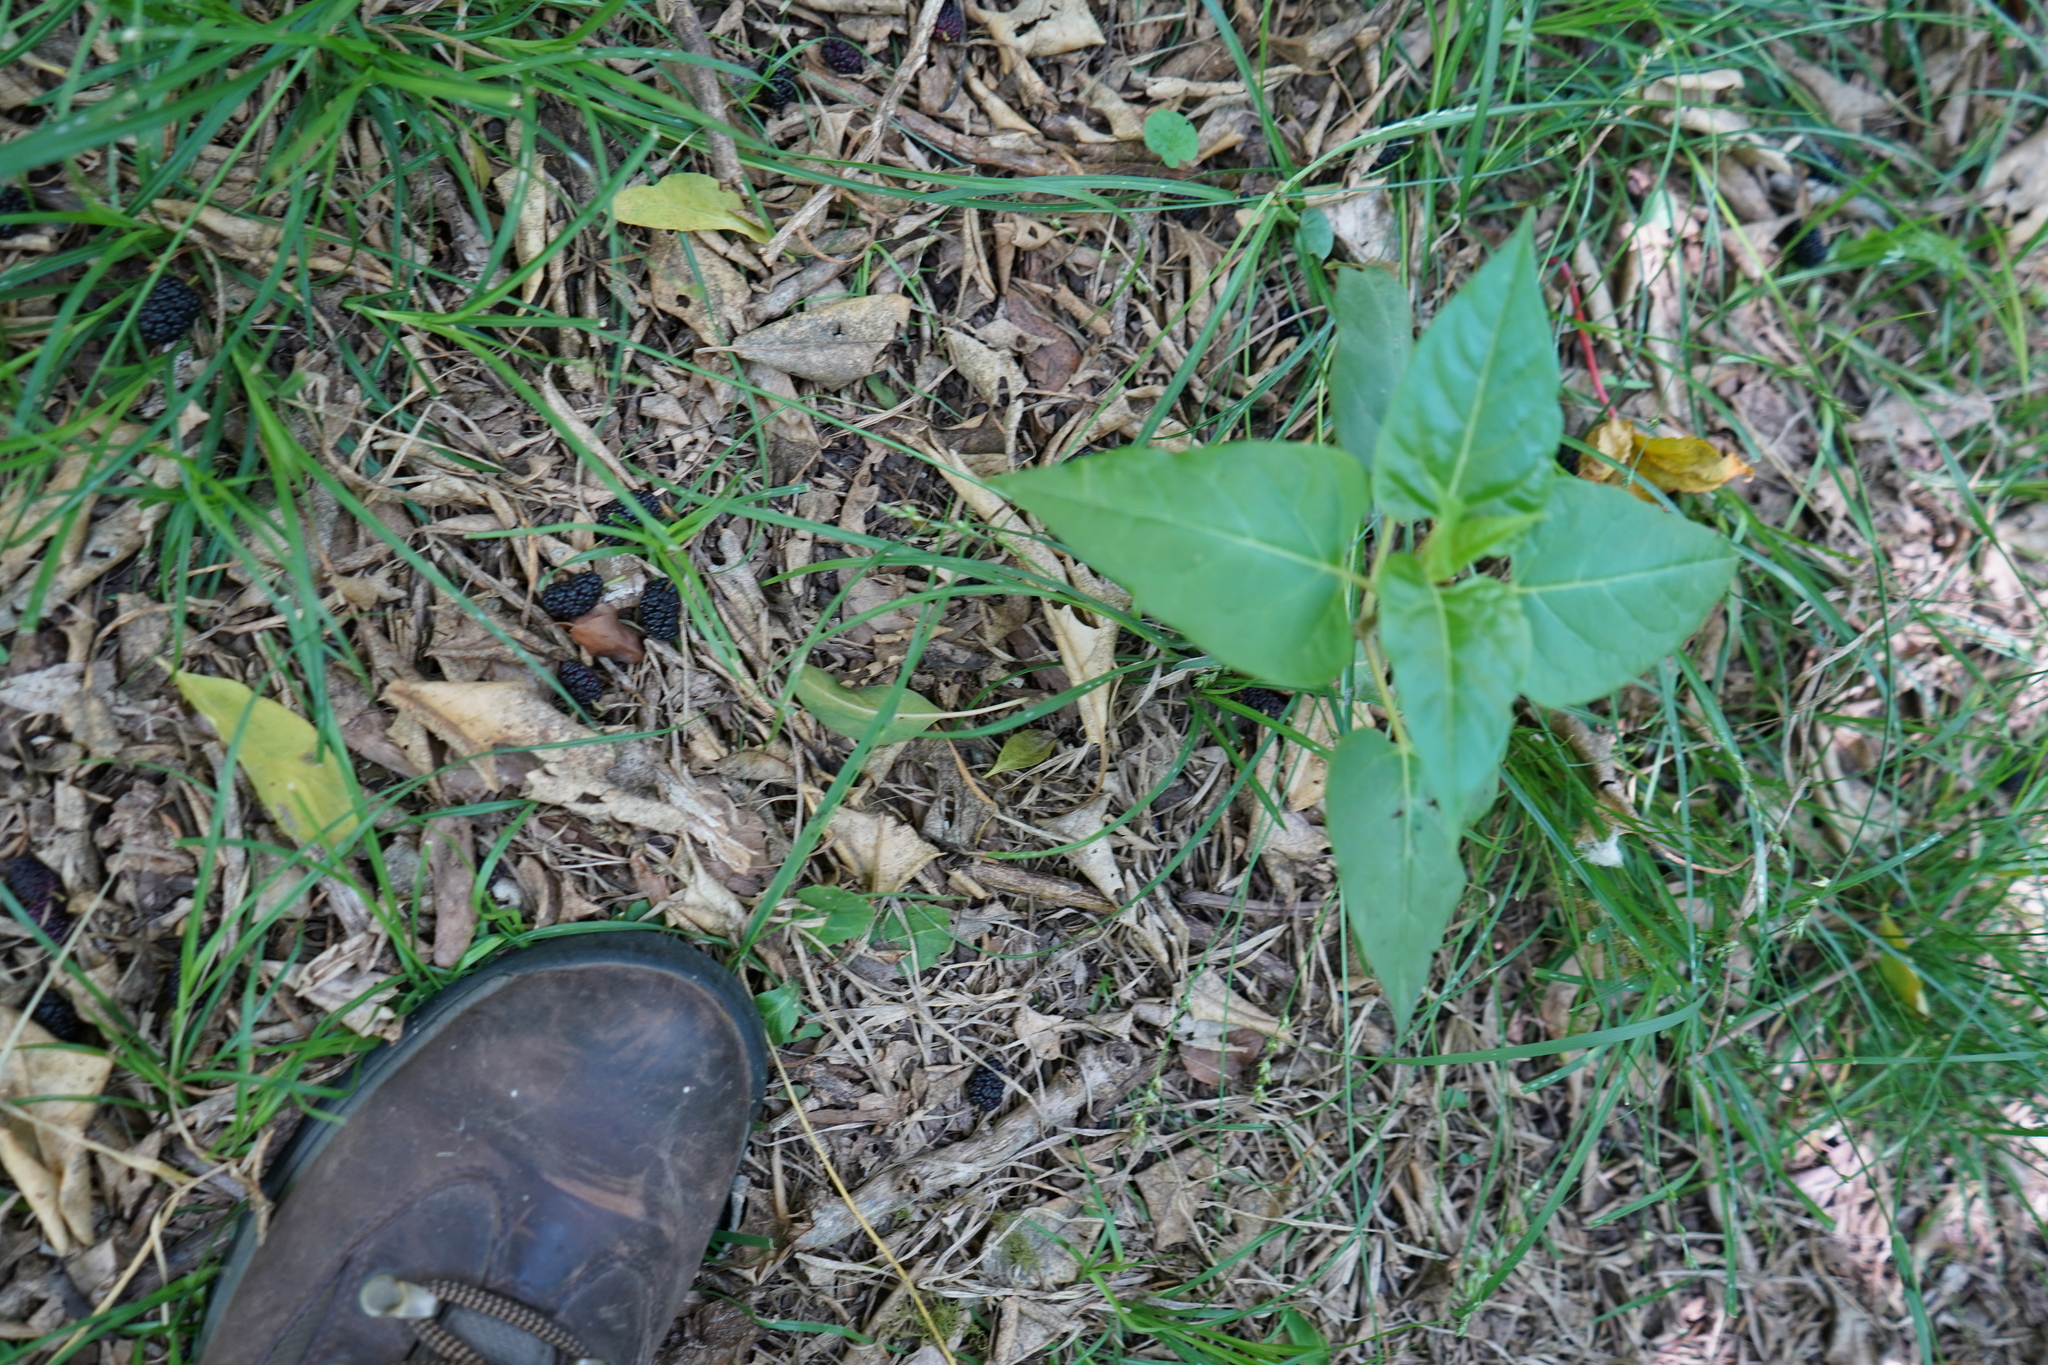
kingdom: Plantae
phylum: Tracheophyta
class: Magnoliopsida
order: Caryophyllales
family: Nyctaginaceae
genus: Mirabilis
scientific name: Mirabilis jalapa
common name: Marvel-of-peru
